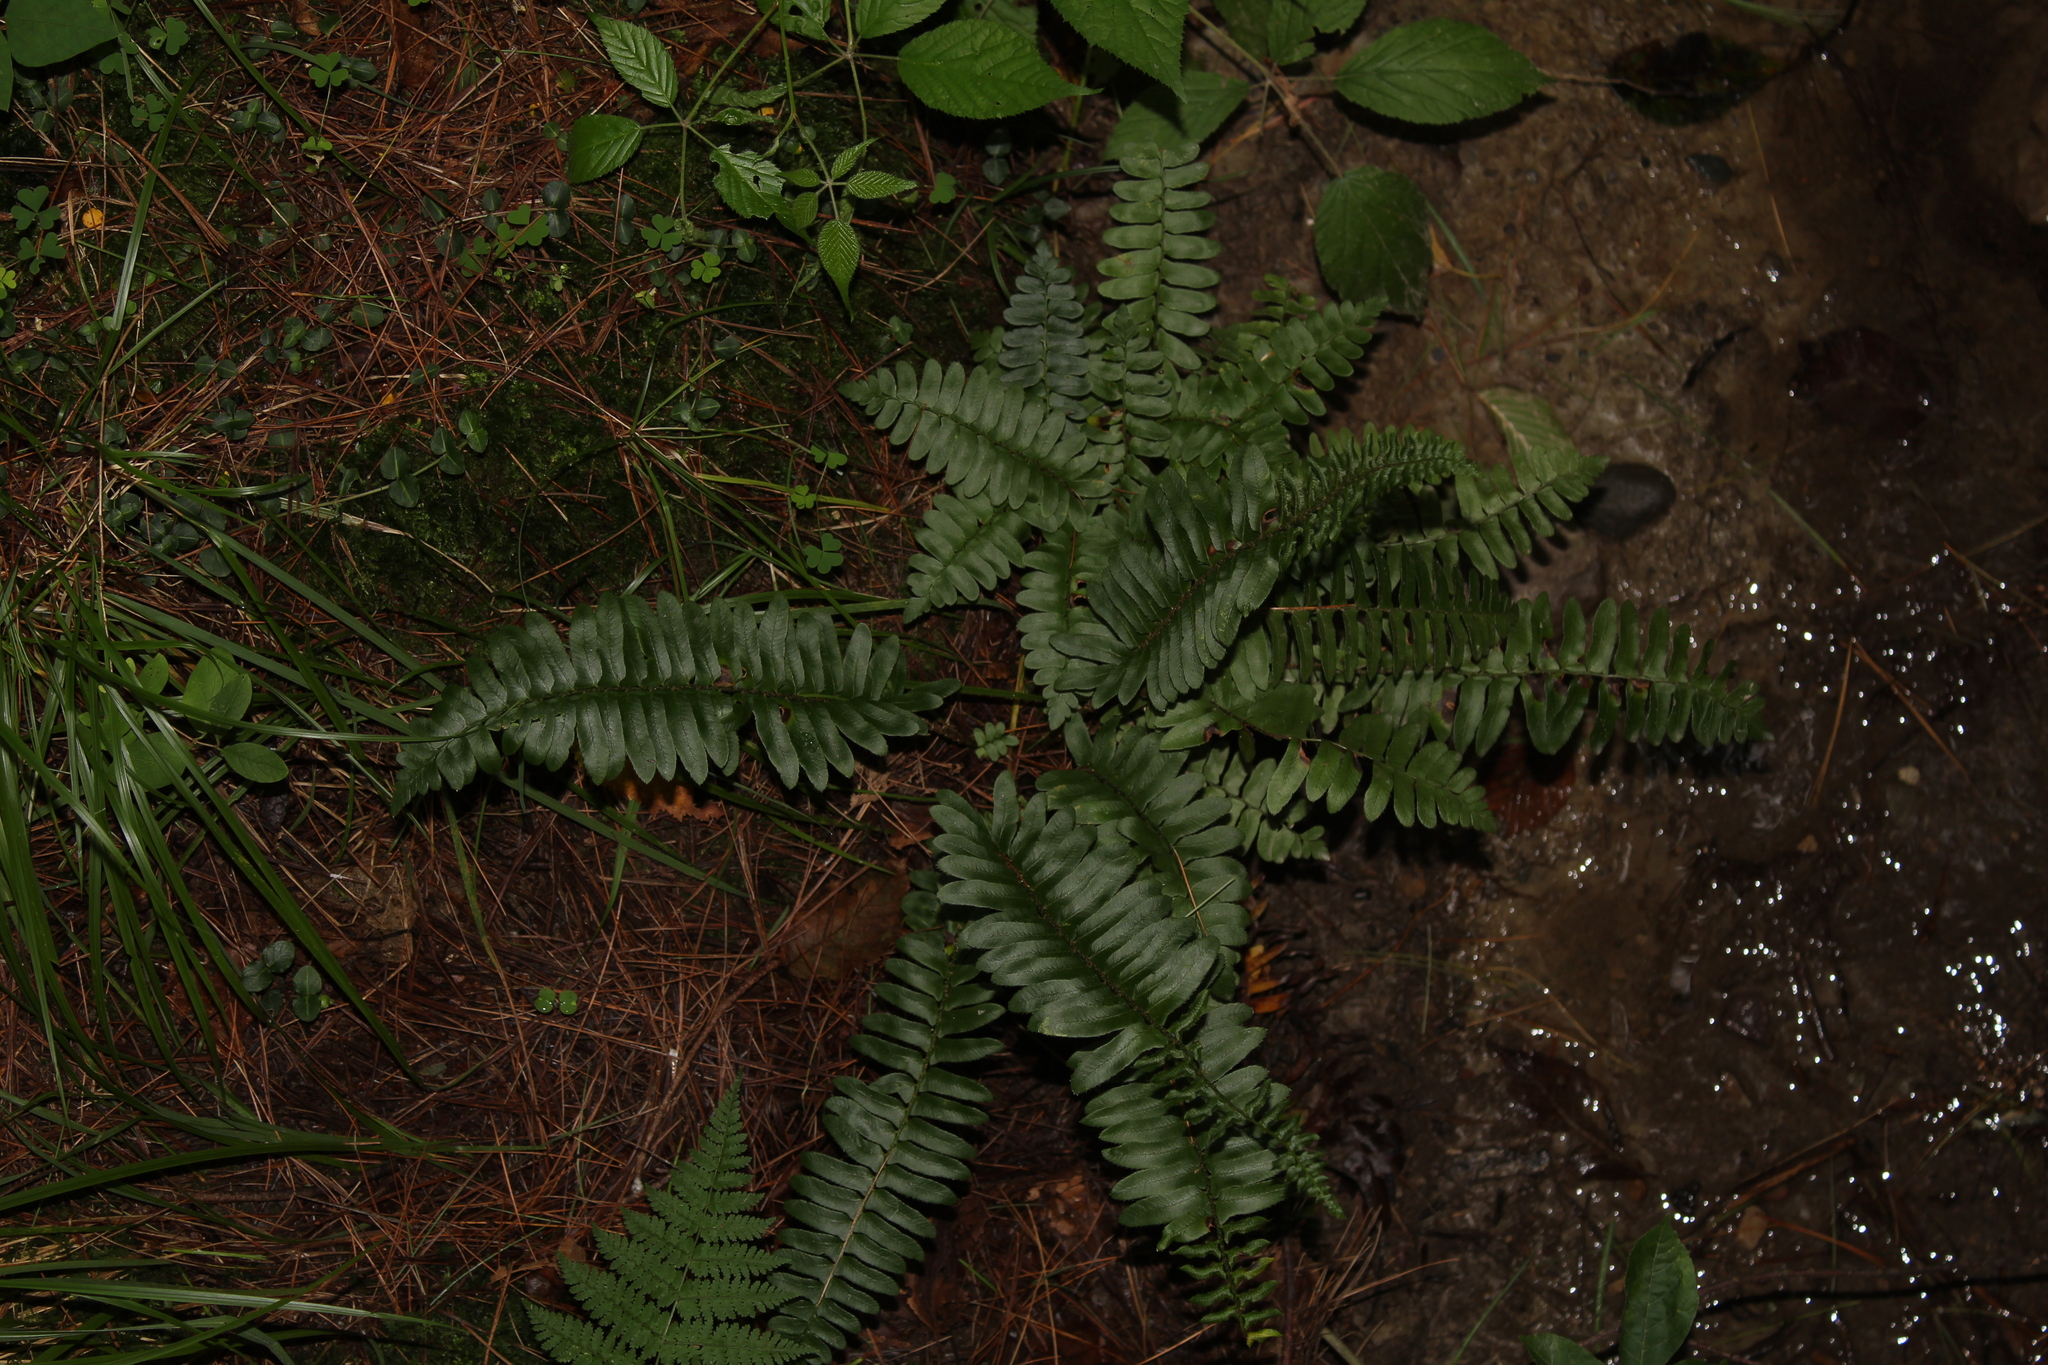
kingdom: Plantae
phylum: Tracheophyta
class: Polypodiopsida
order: Polypodiales
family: Dryopteridaceae
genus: Polystichum
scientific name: Polystichum acrostichoides
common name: Christmas fern
